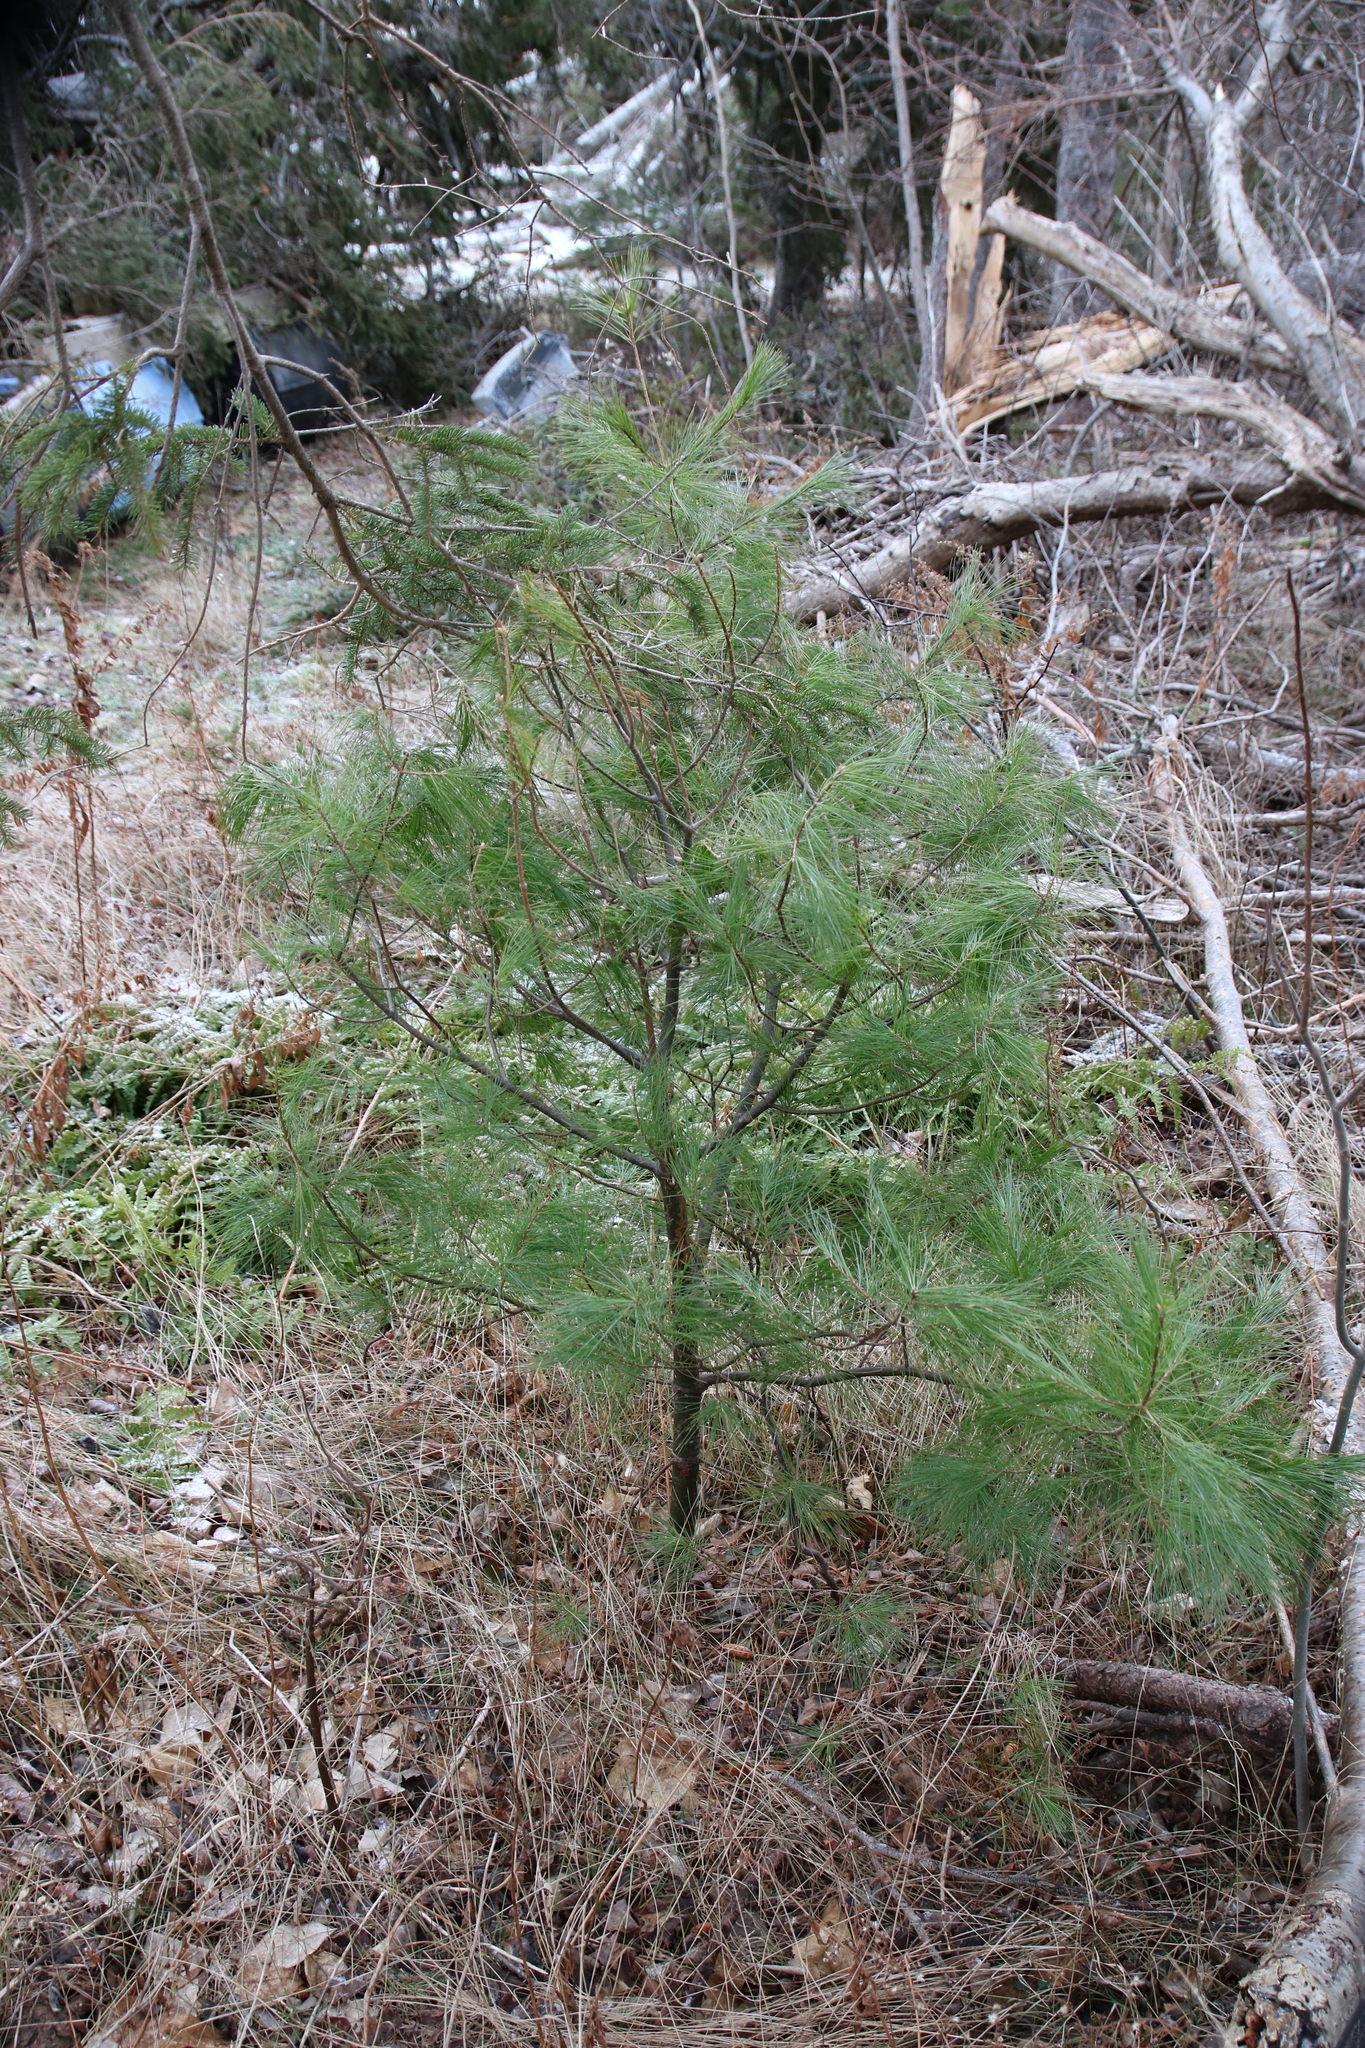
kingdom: Plantae
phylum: Tracheophyta
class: Pinopsida
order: Pinales
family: Pinaceae
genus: Pinus
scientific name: Pinus strobus
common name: Weymouth pine
